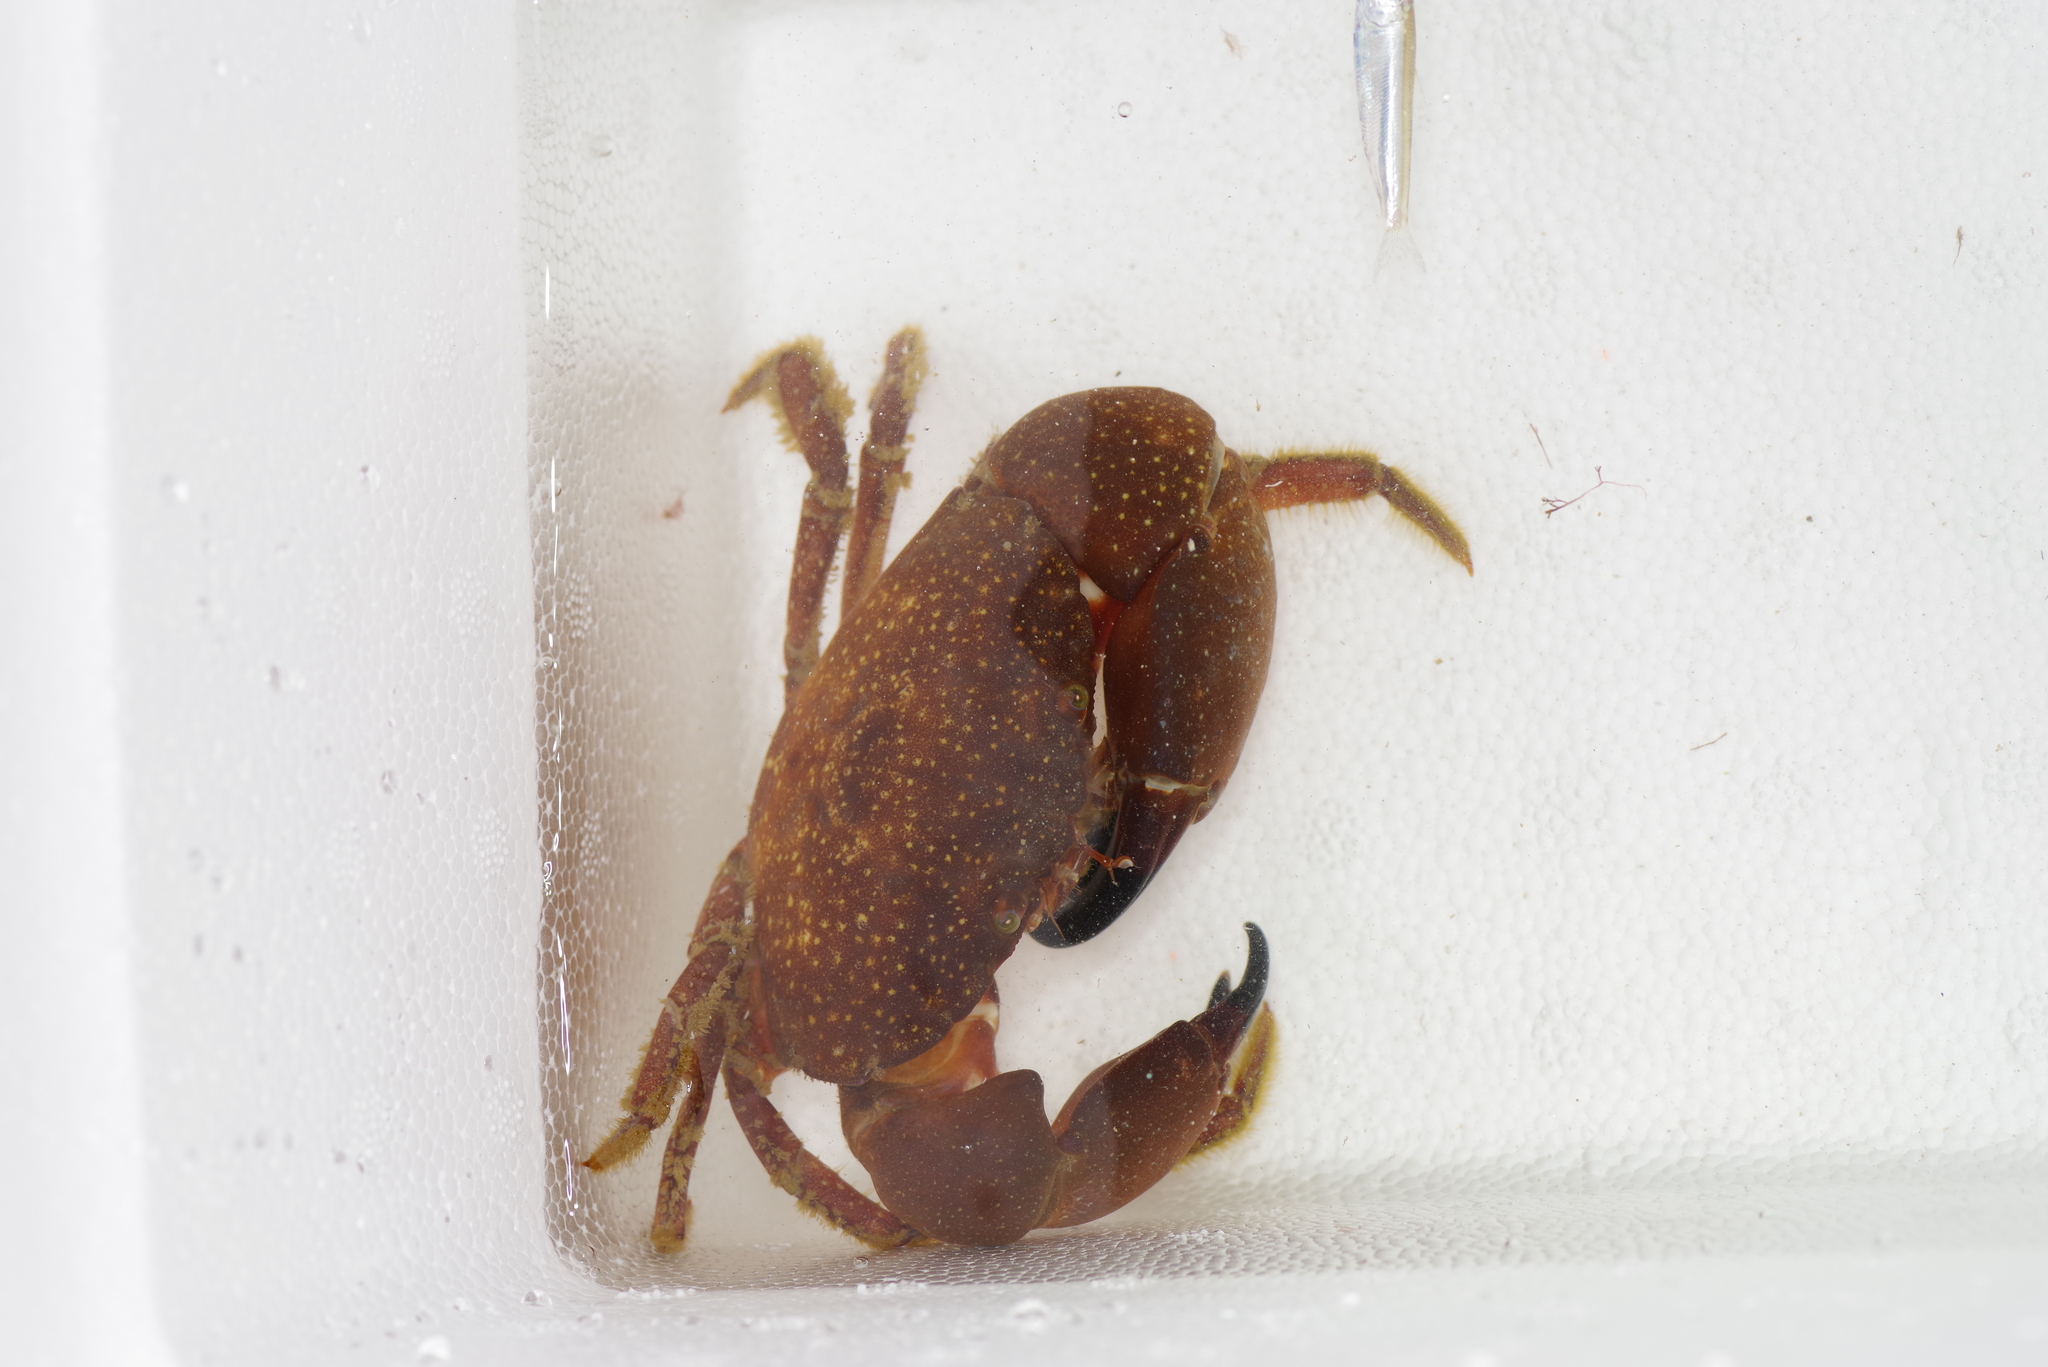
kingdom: Animalia
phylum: Arthropoda
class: Malacostraca
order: Decapoda
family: Menippidae
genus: Menippe
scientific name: Menippe adina
